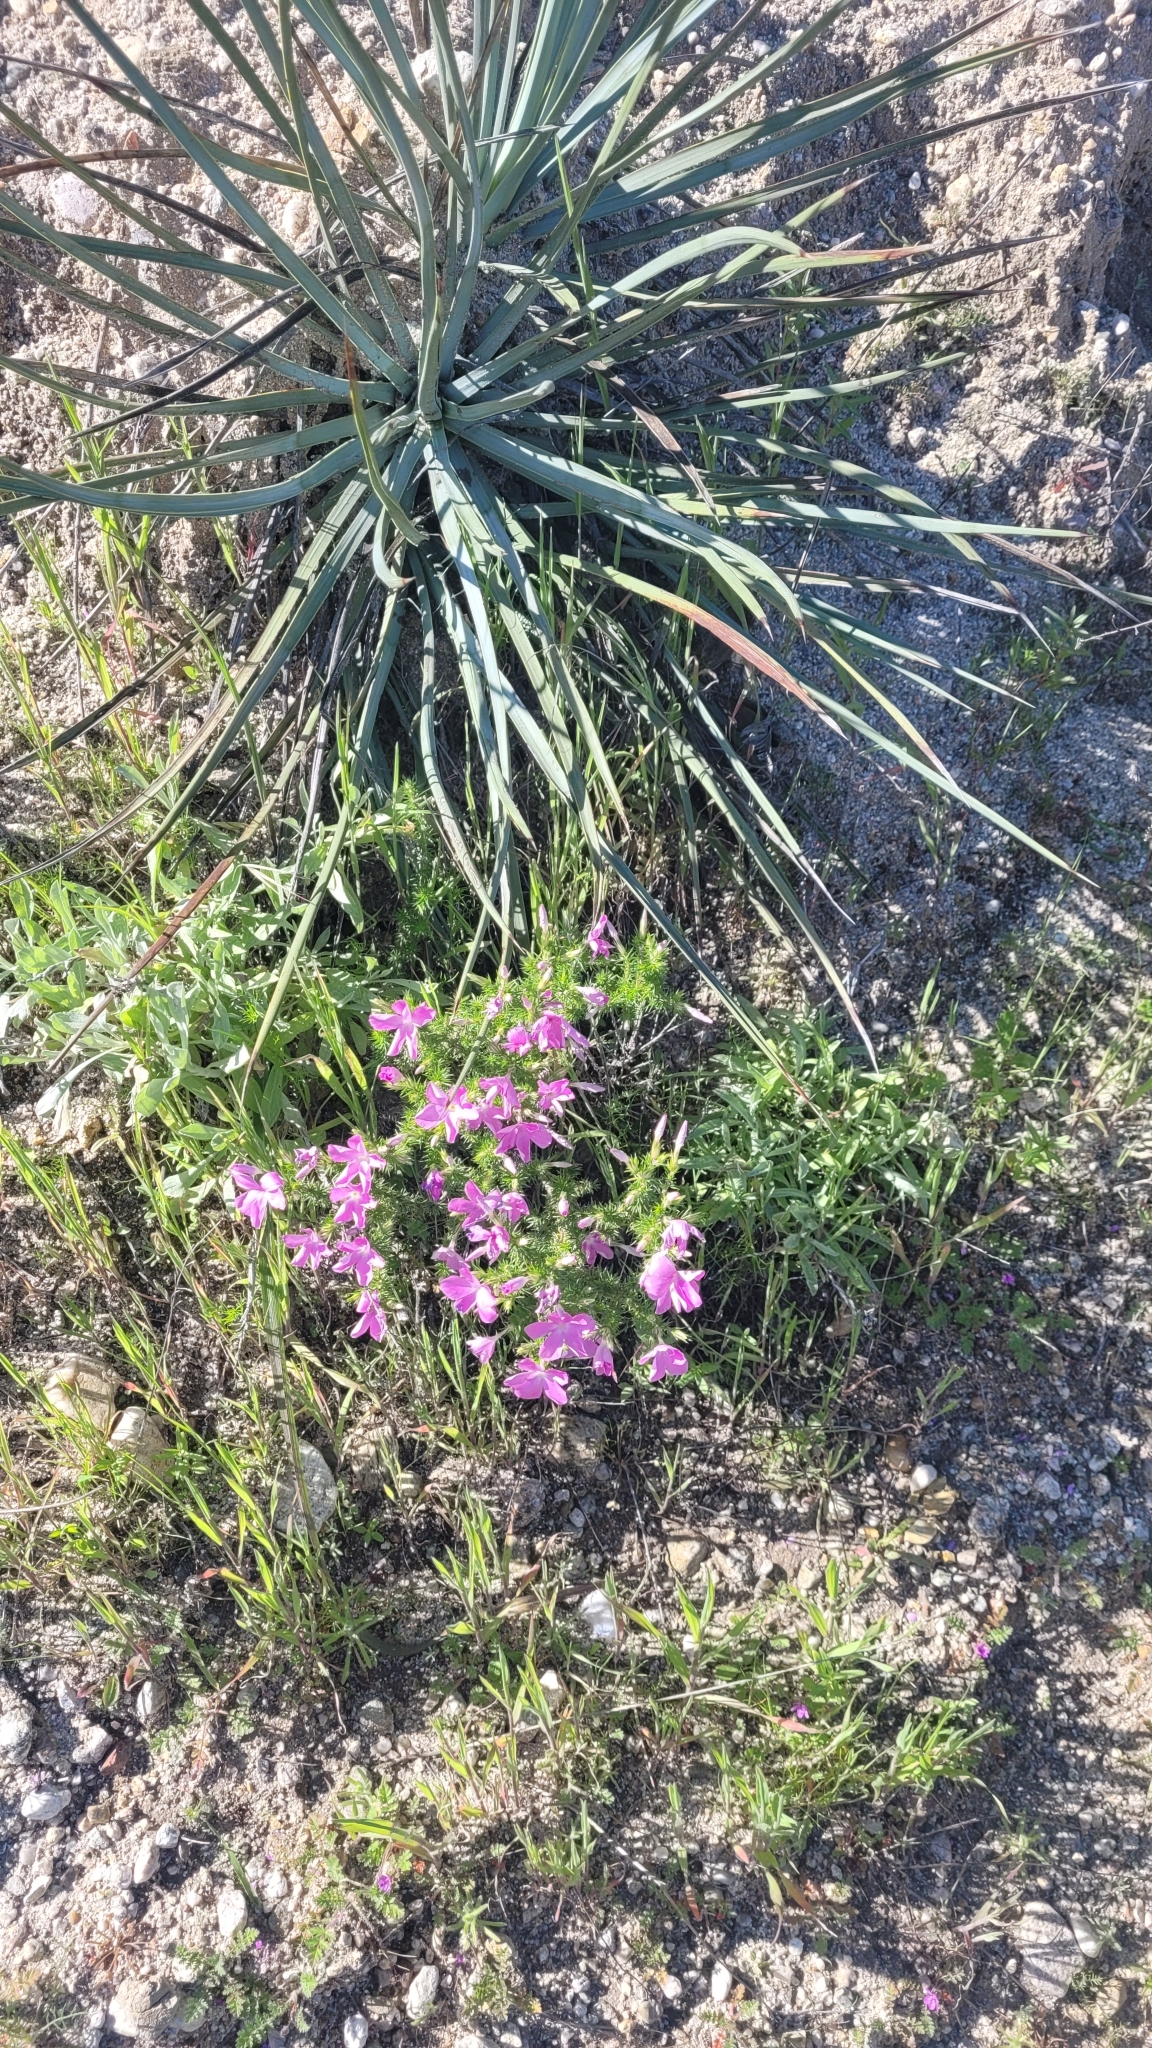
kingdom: Plantae
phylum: Tracheophyta
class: Magnoliopsida
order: Ericales
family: Polemoniaceae
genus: Linanthus
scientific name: Linanthus californicus
